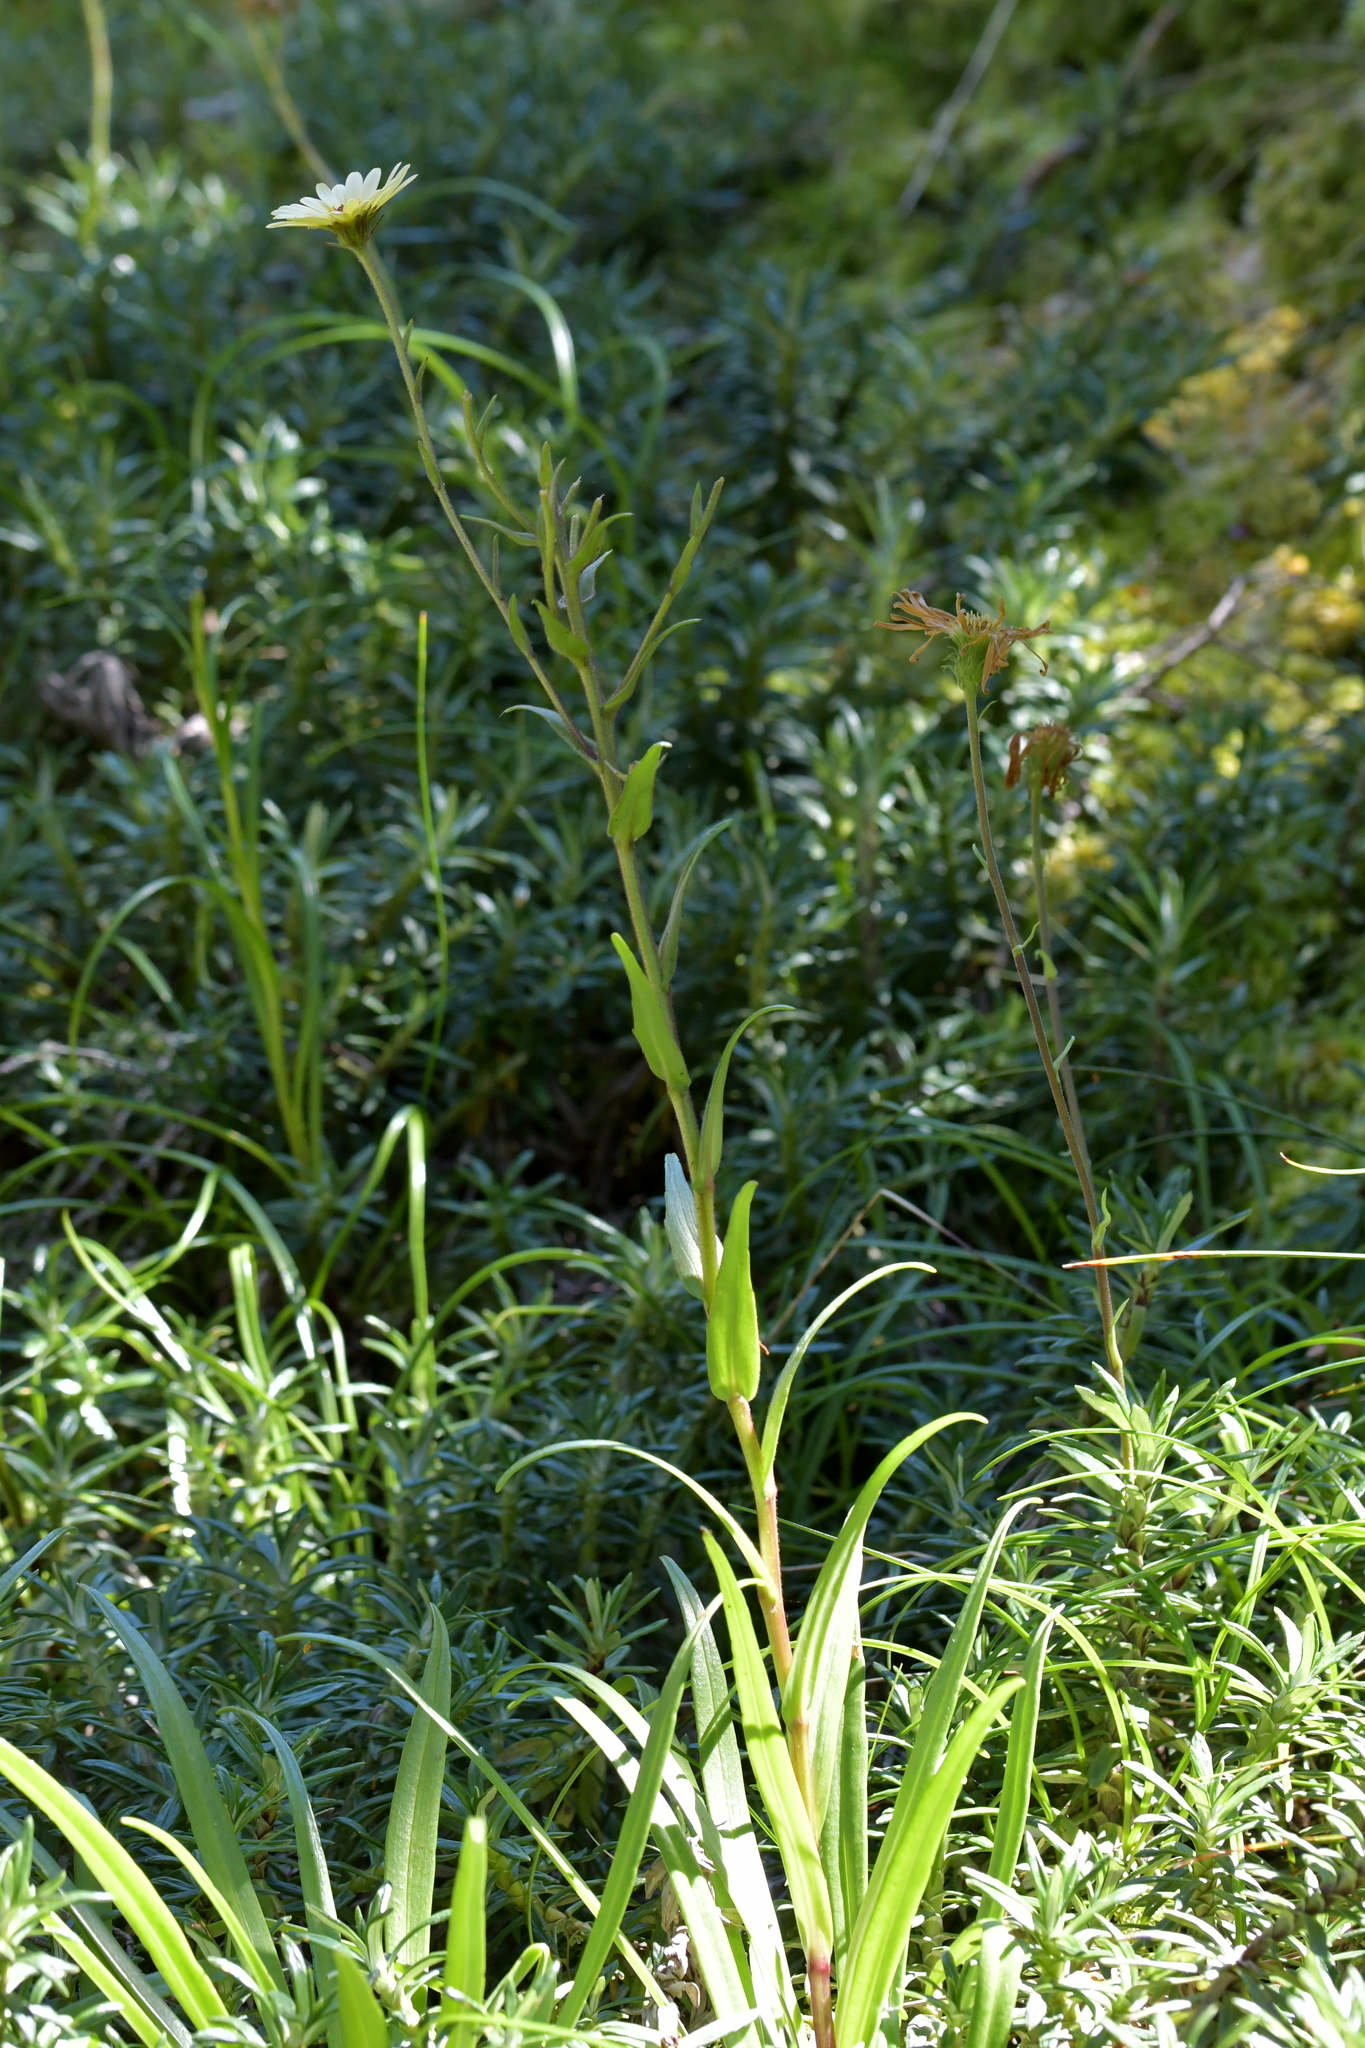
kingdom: Plantae
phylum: Tracheophyta
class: Magnoliopsida
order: Asterales
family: Asteraceae
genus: Dolichoglottis
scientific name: Dolichoglottis
